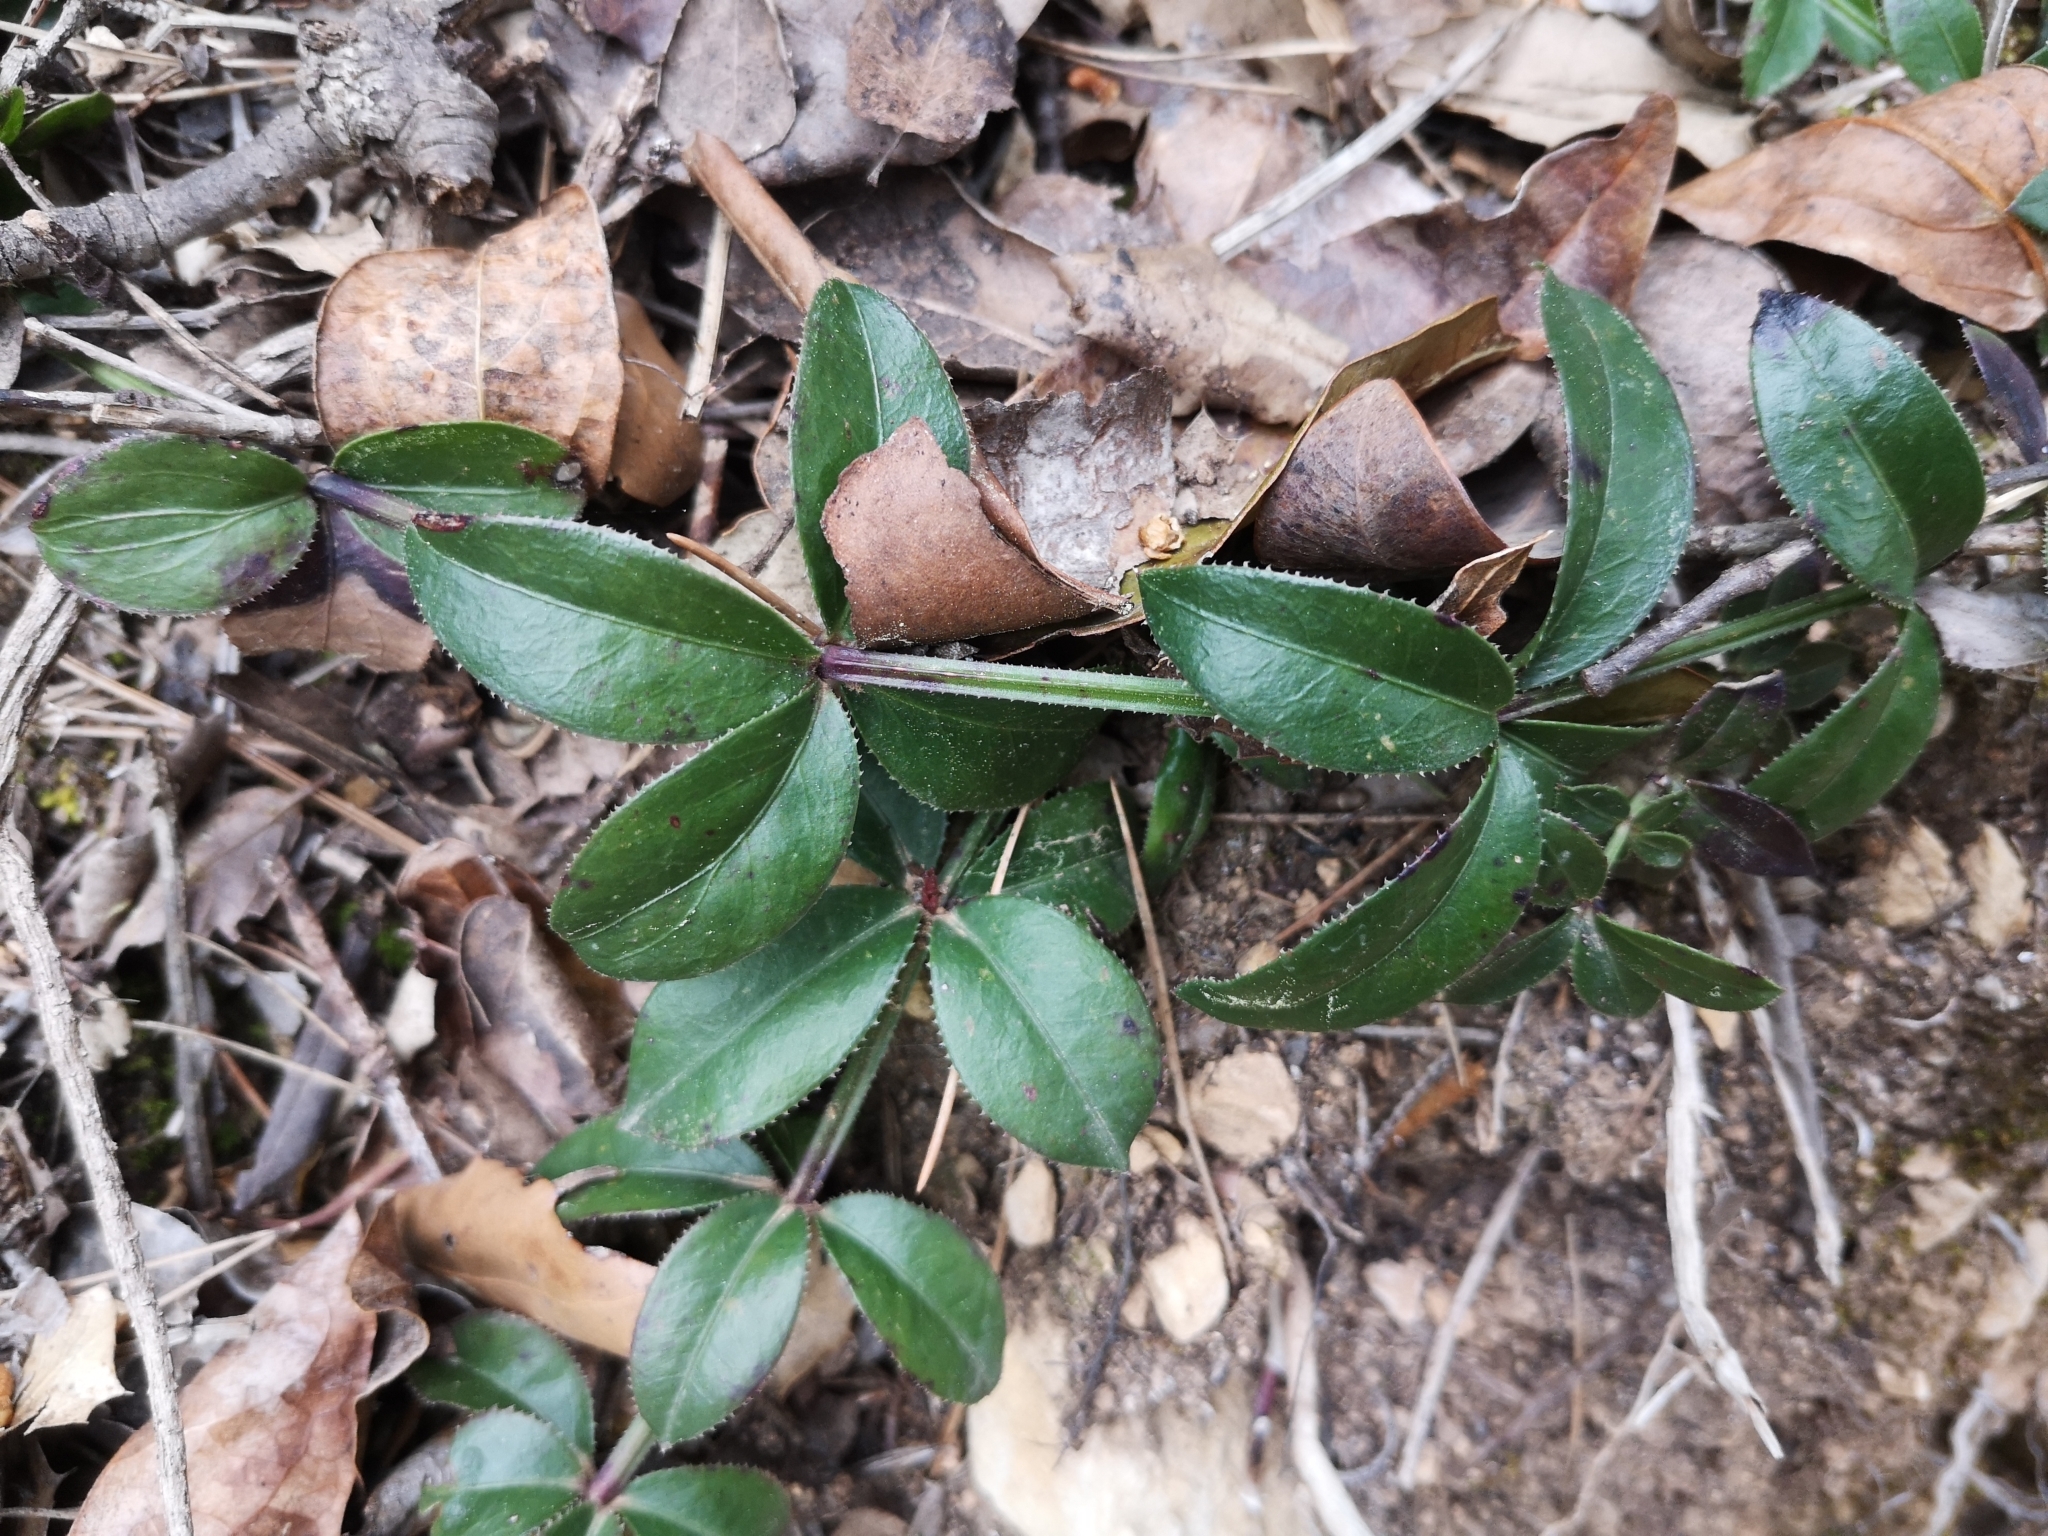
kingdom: Plantae
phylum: Tracheophyta
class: Magnoliopsida
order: Gentianales
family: Rubiaceae
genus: Rubia
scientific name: Rubia peregrina
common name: Wild madder
